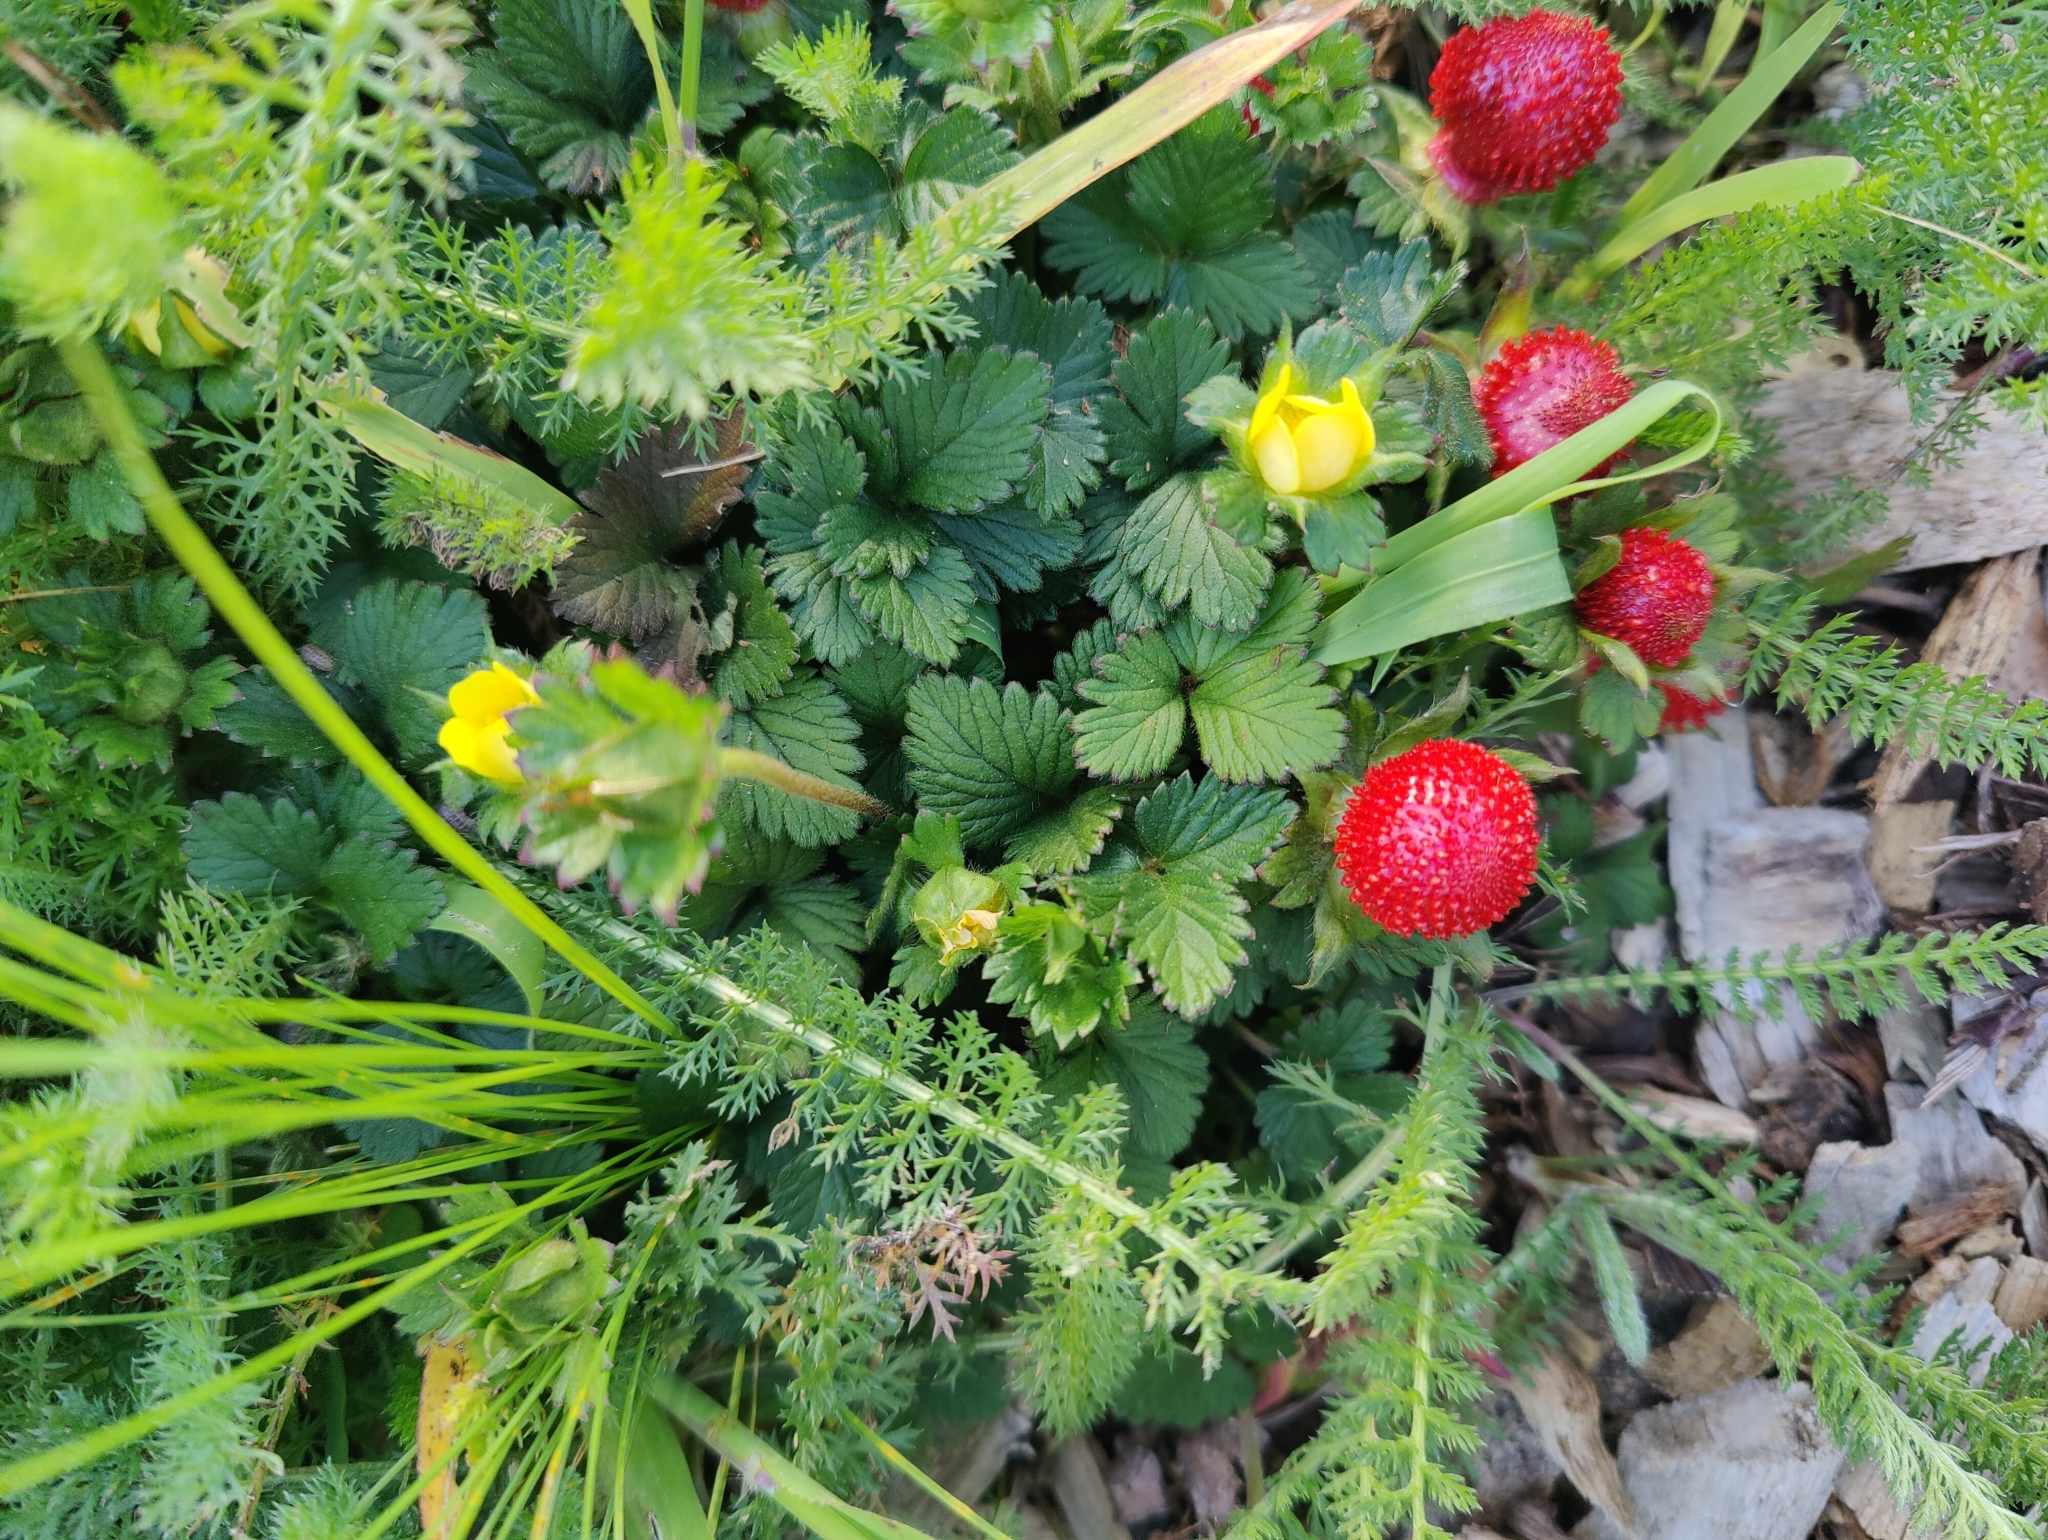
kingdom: Plantae
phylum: Tracheophyta
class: Magnoliopsida
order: Rosales
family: Rosaceae
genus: Potentilla
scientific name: Potentilla indica
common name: Yellow-flowered strawberry
